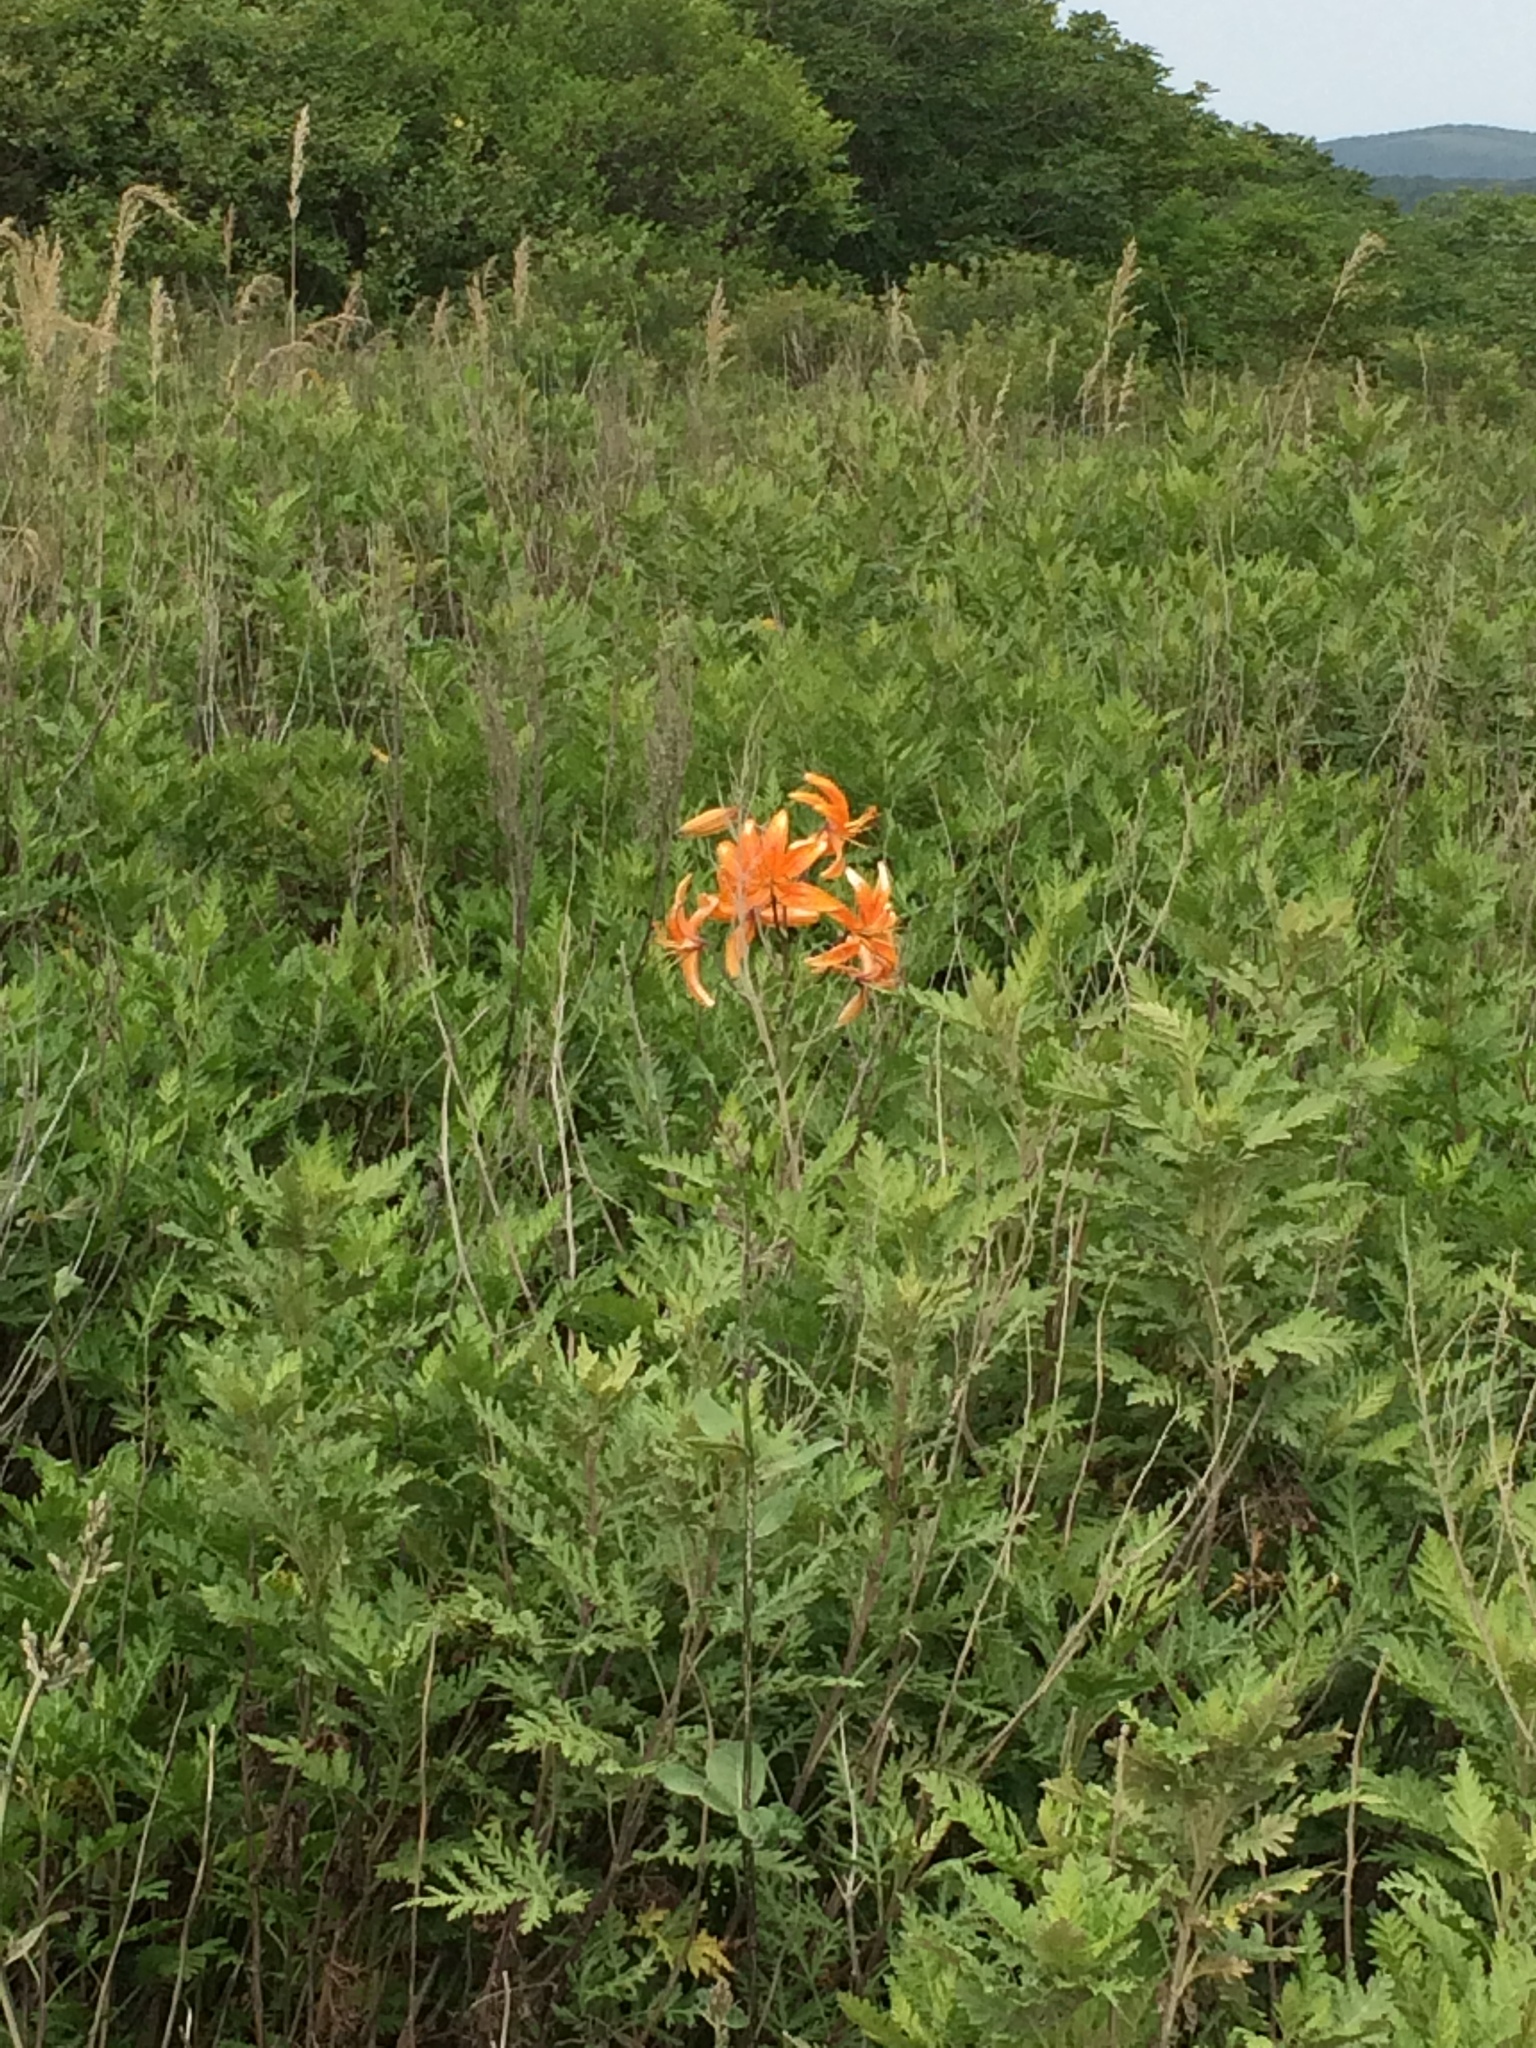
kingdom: Plantae
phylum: Tracheophyta
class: Liliopsida
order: Liliales
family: Liliaceae
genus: Lilium
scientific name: Lilium distichum
